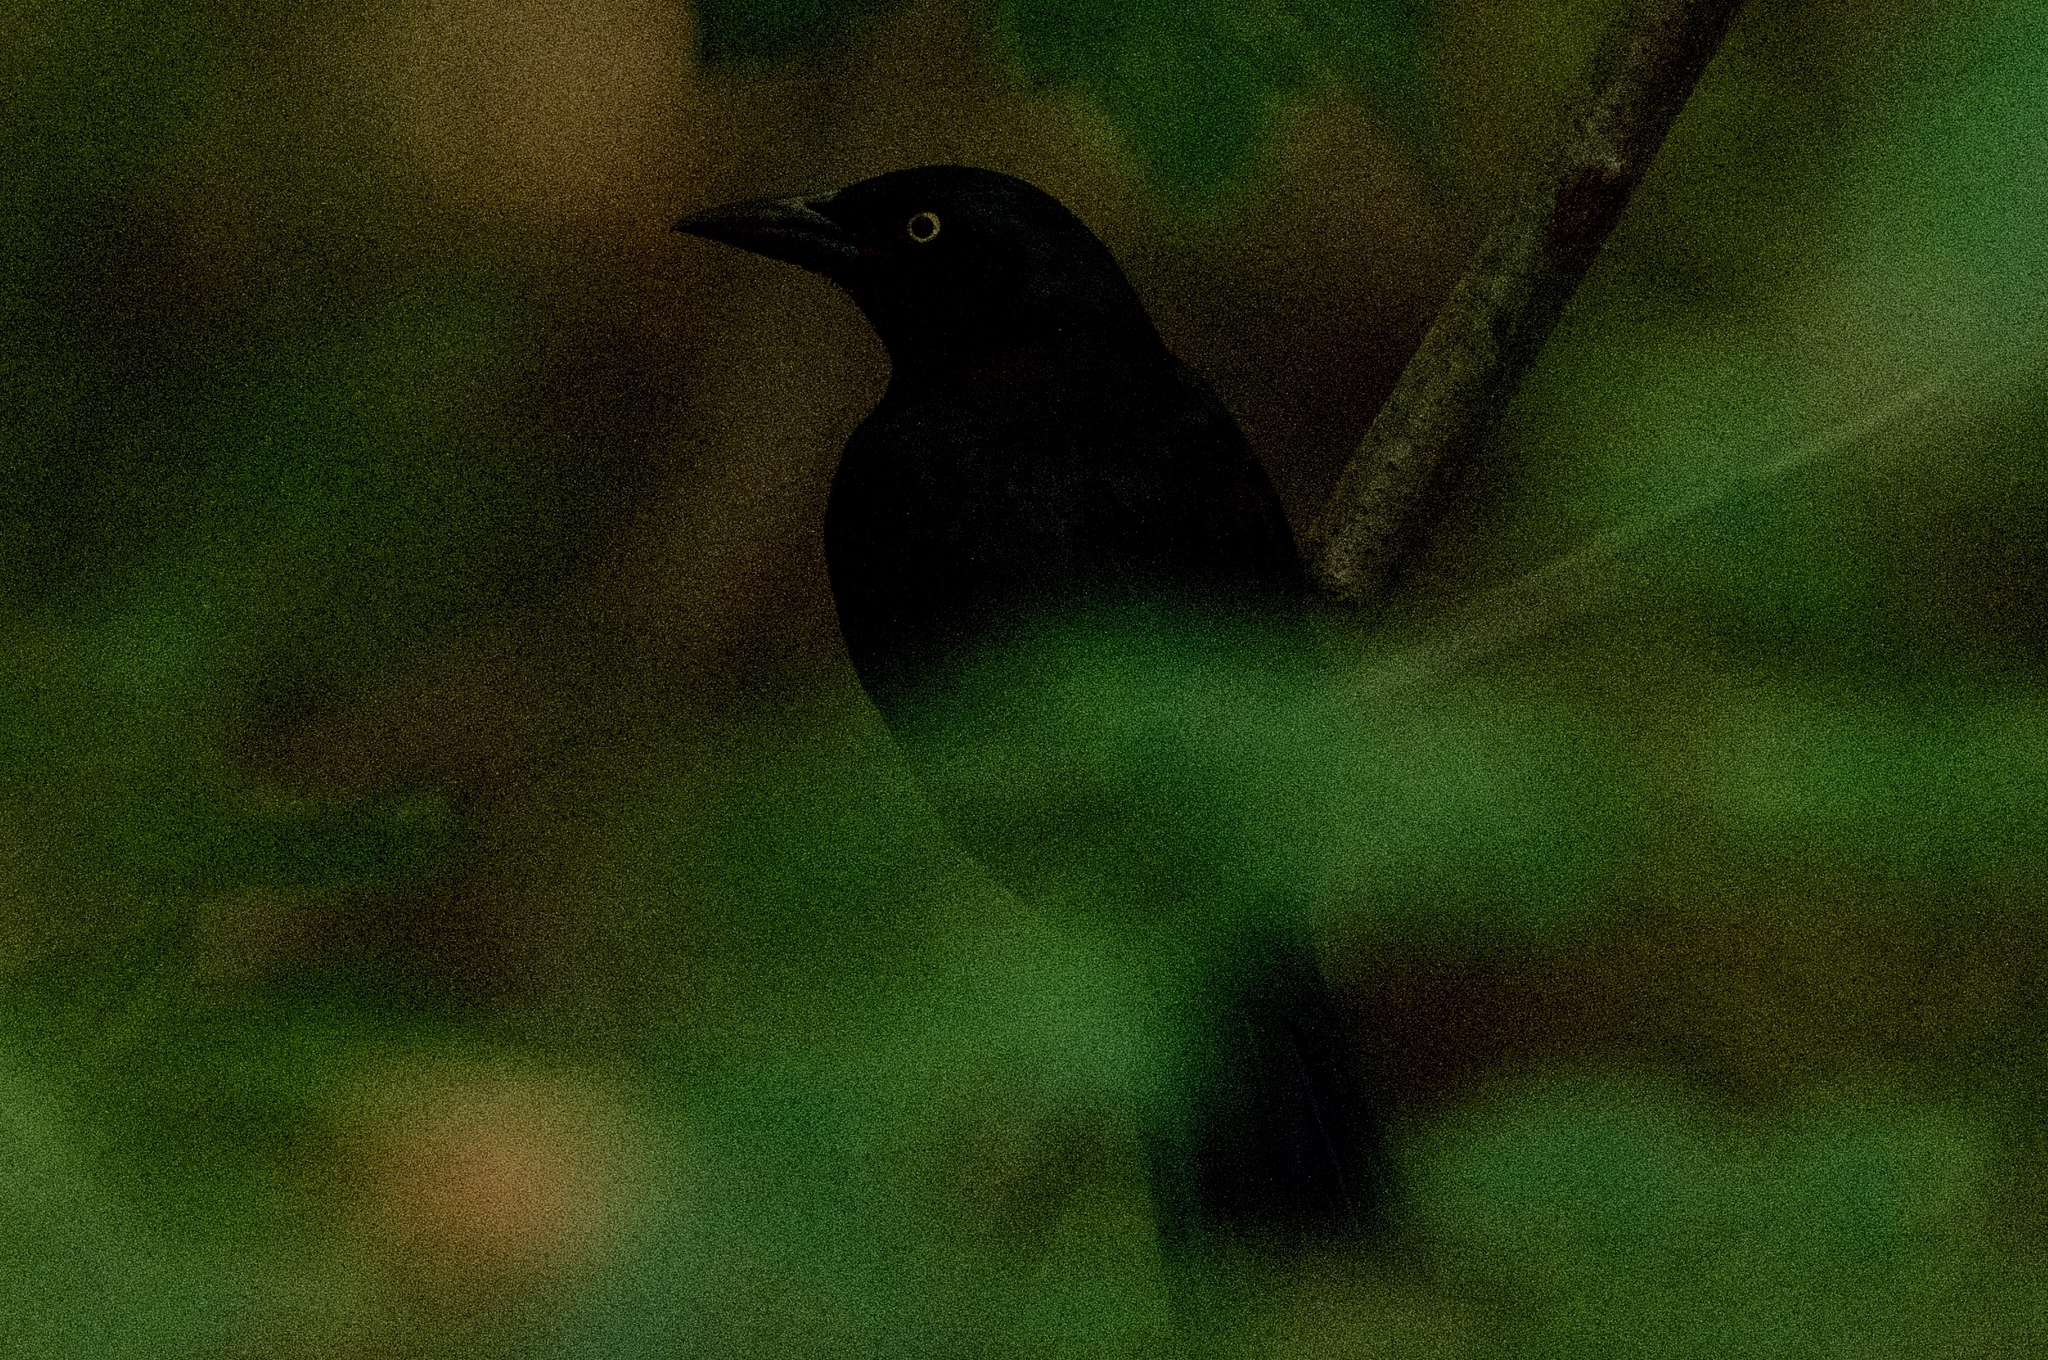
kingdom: Animalia
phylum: Chordata
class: Aves
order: Passeriformes
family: Icteridae
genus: Quiscalus
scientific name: Quiscalus quiscula
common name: Common grackle
